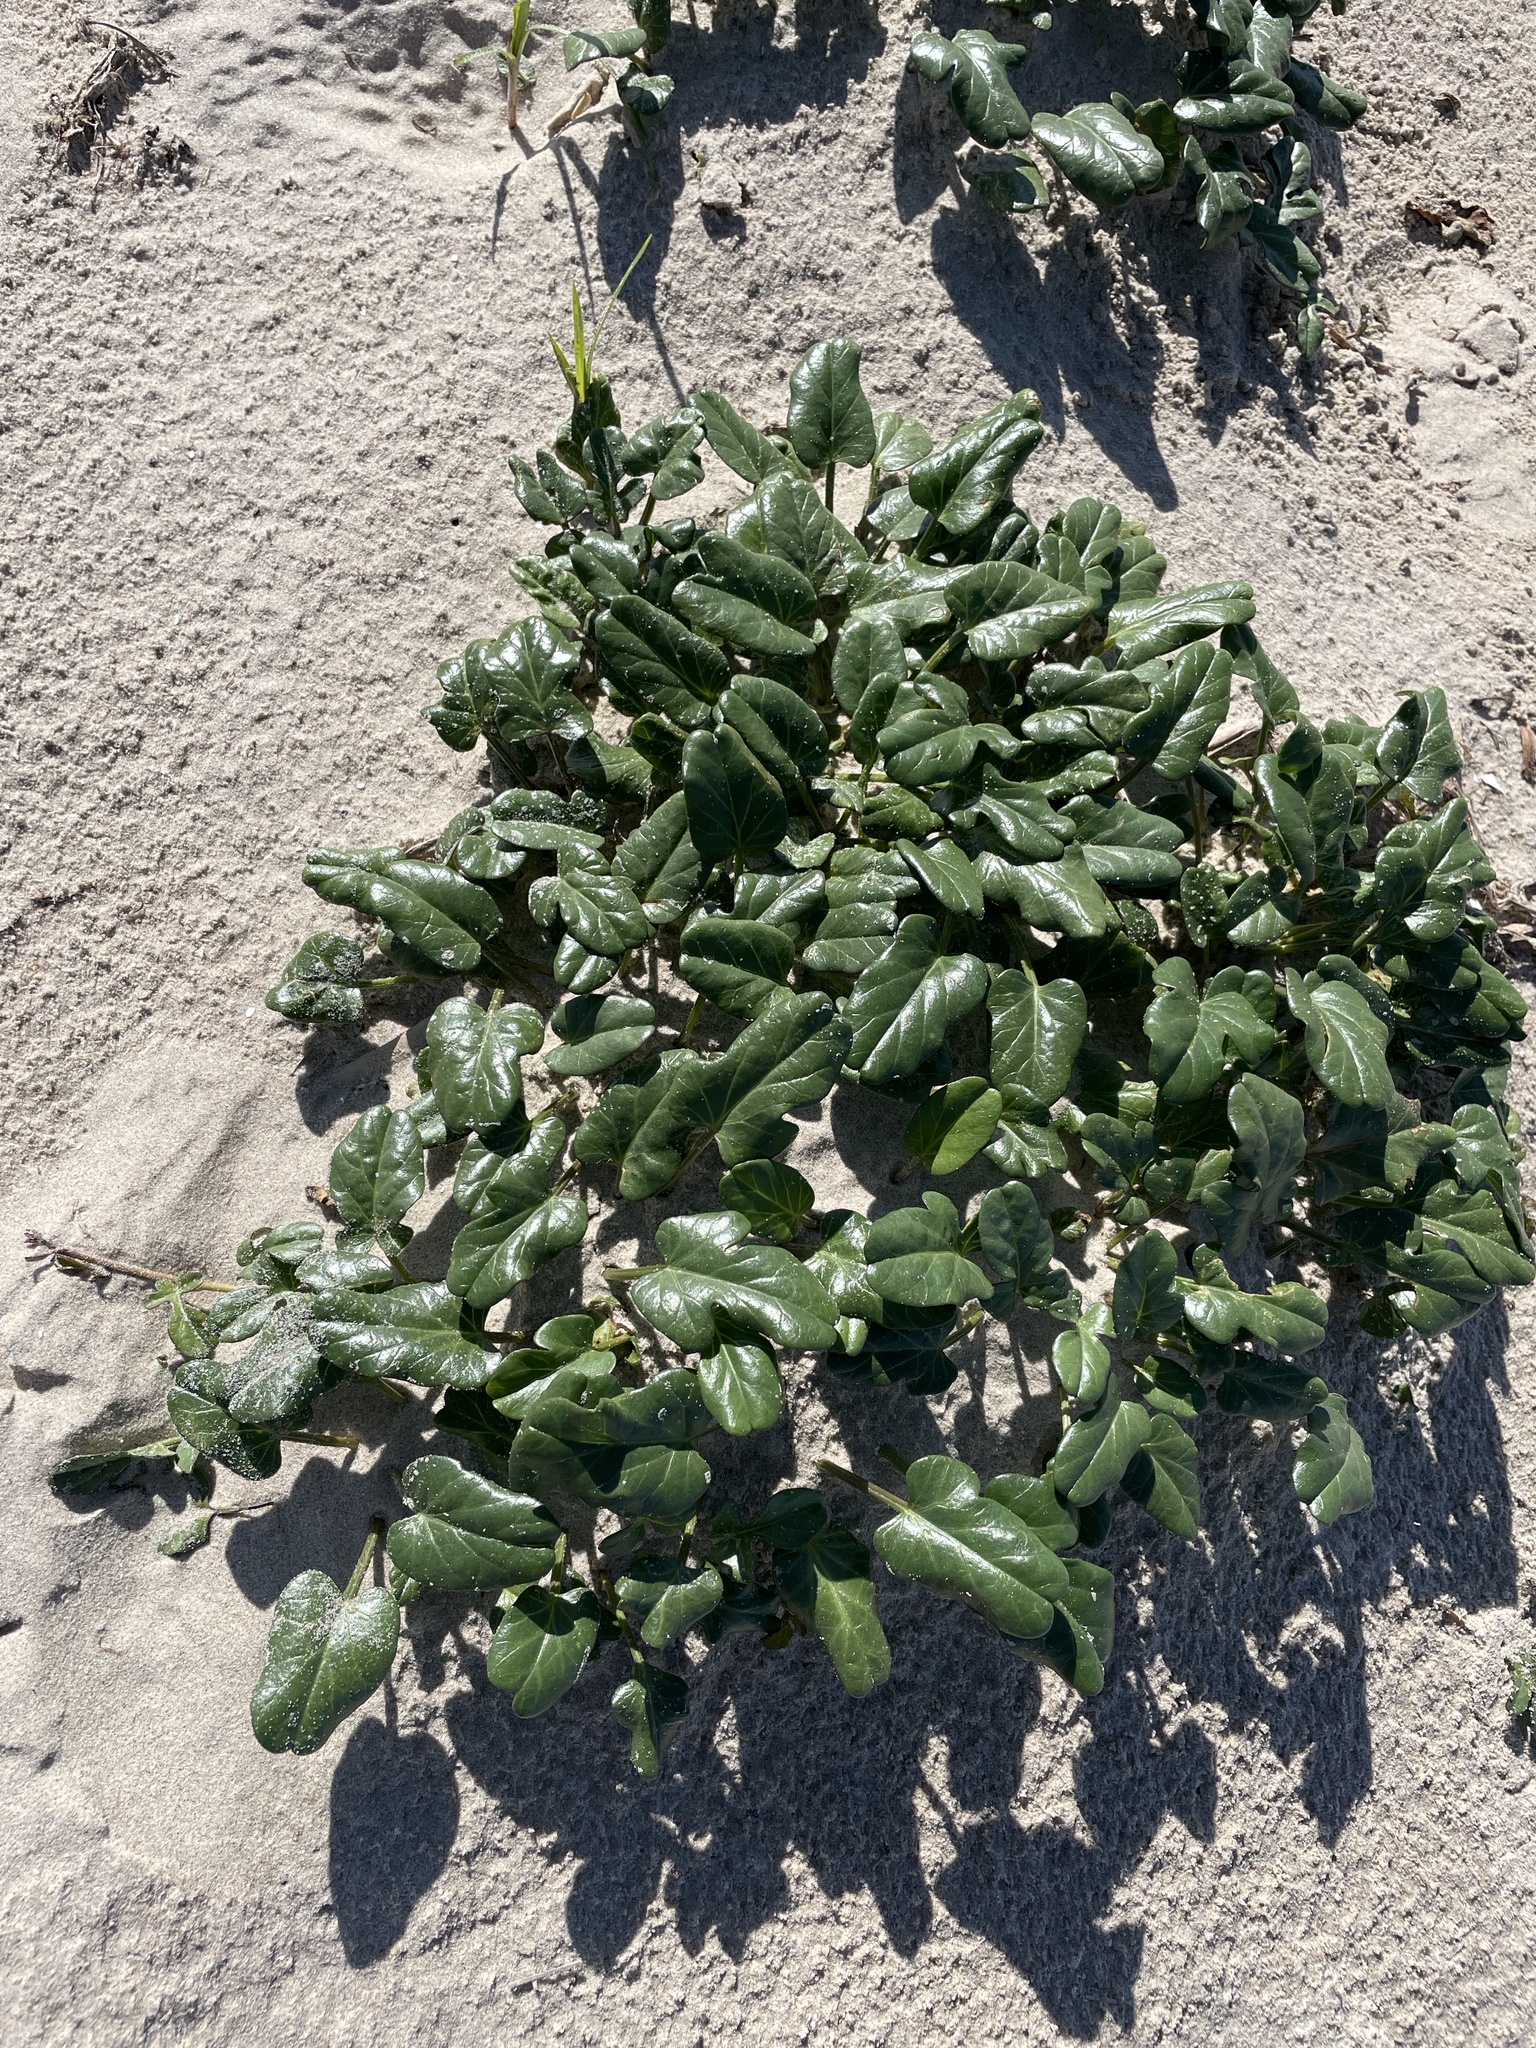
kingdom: Plantae
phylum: Tracheophyta
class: Magnoliopsida
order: Solanales
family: Convolvulaceae
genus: Ipomoea
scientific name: Ipomoea imperati
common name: Fiddle-leaf morning-glory
